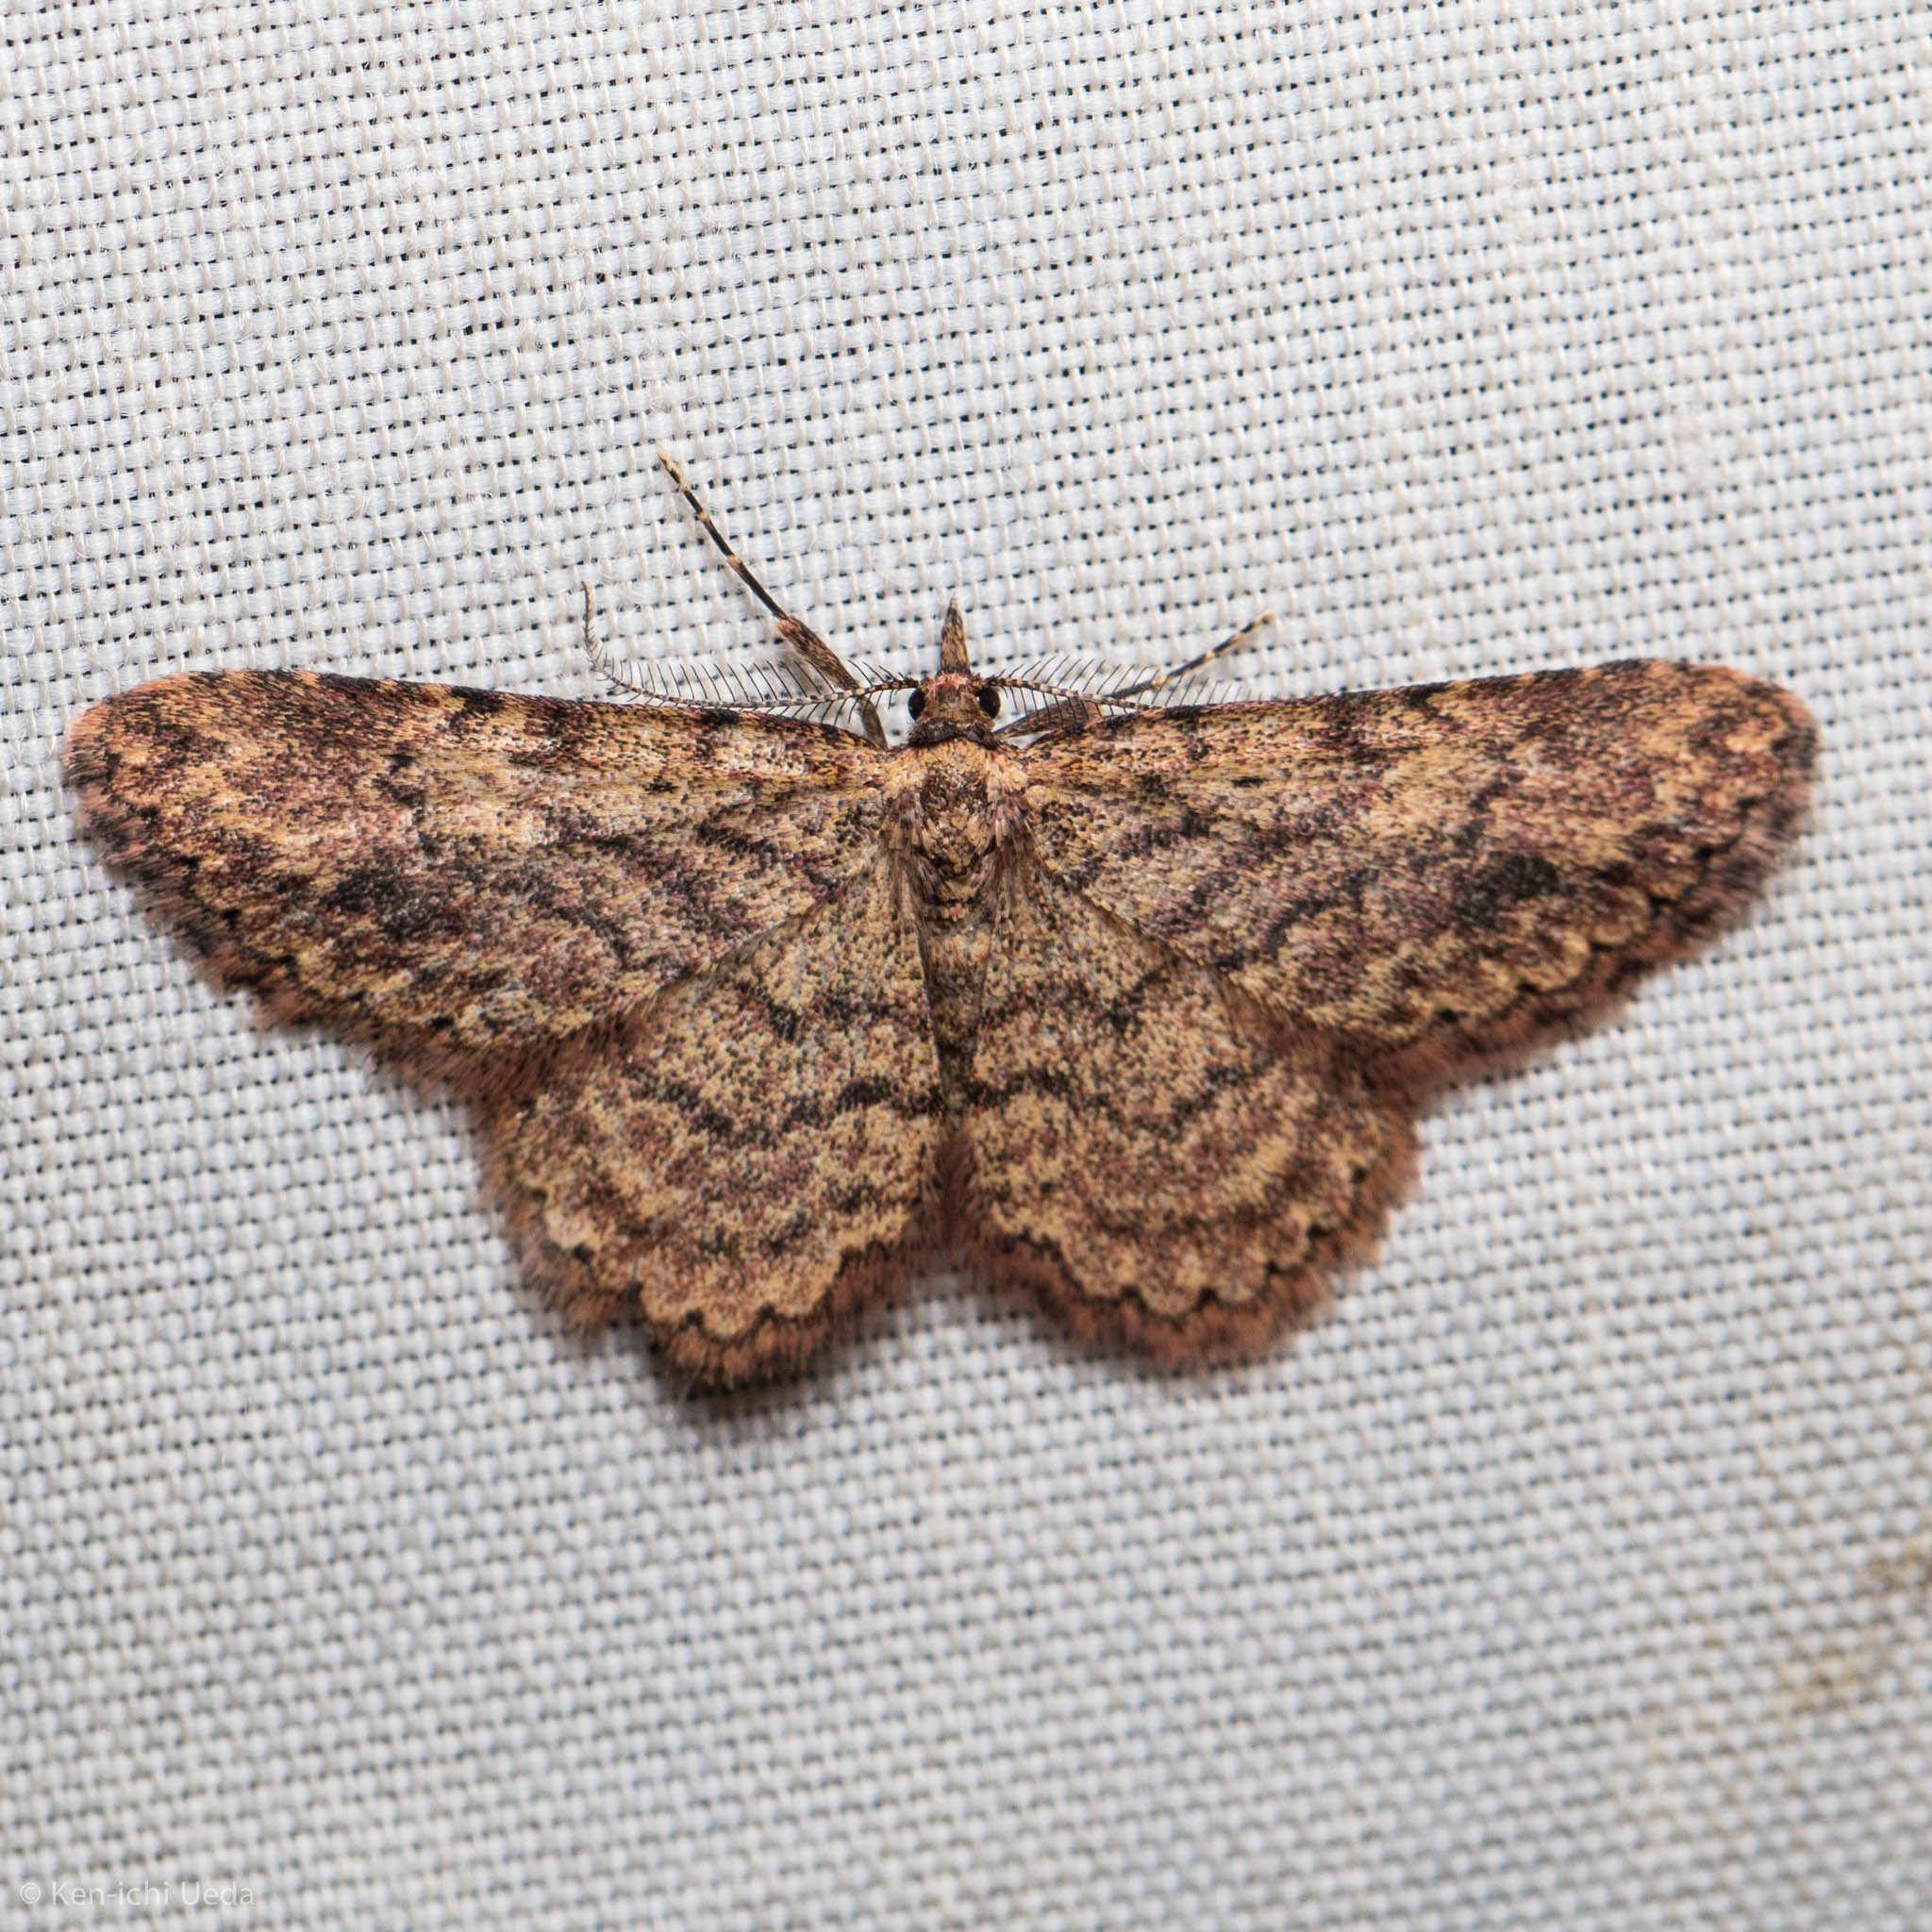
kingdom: Animalia
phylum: Arthropoda
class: Insecta
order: Lepidoptera
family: Erebidae
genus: Mycterophora
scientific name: Mycterophora rubricans
